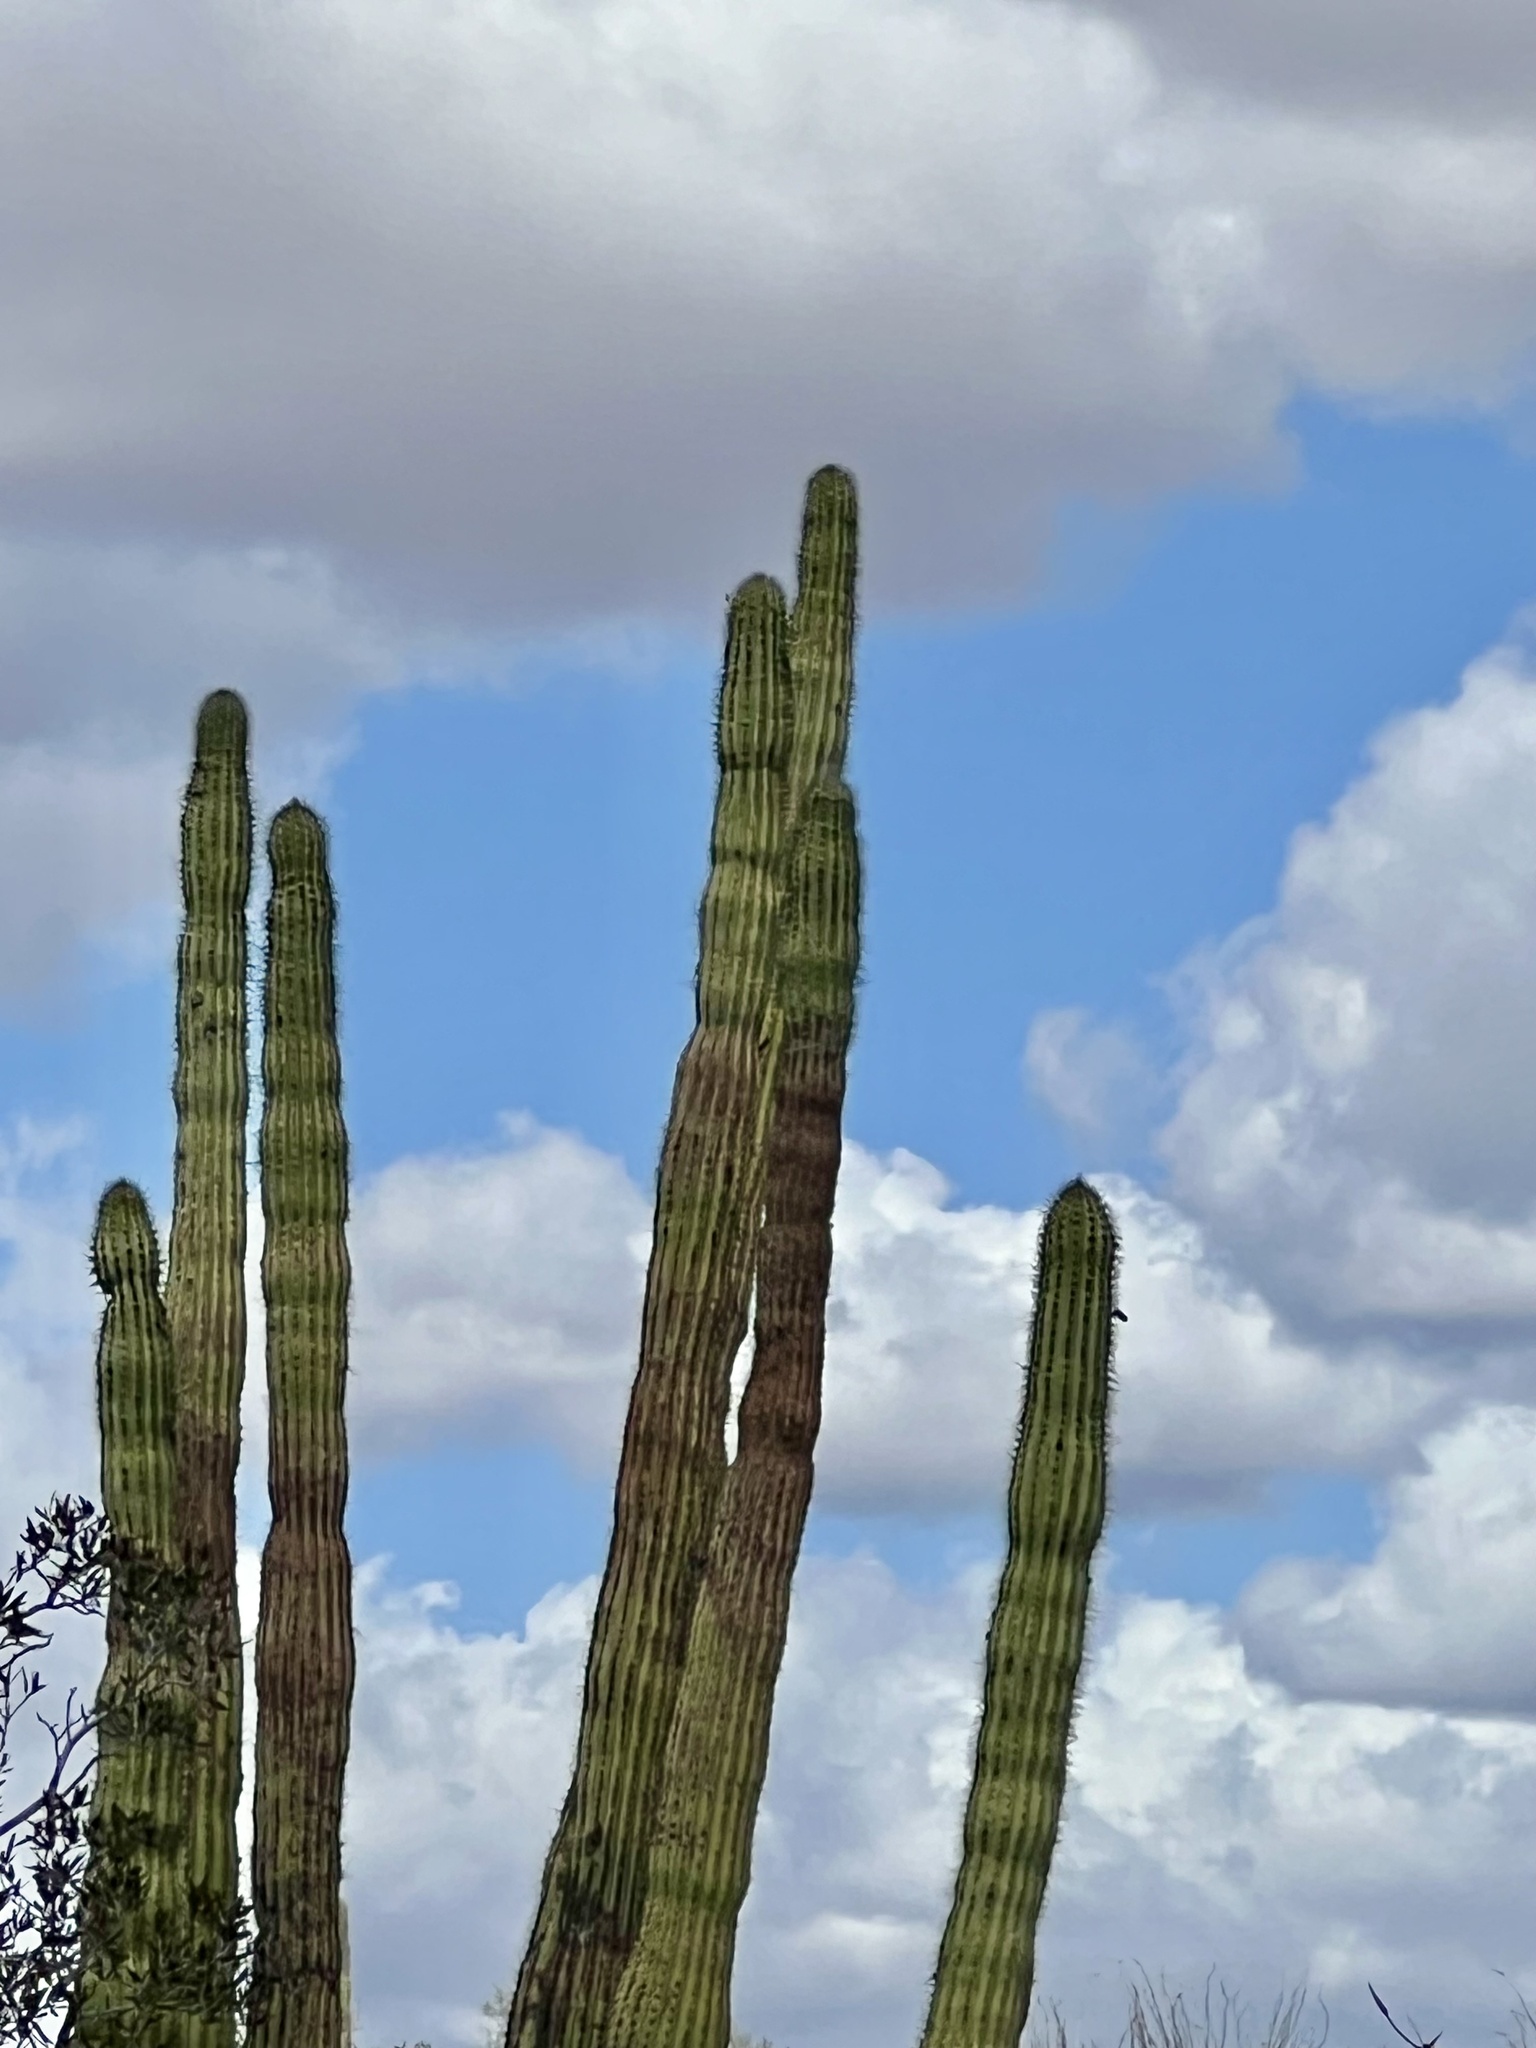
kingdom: Plantae
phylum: Tracheophyta
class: Magnoliopsida
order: Caryophyllales
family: Cactaceae
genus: Stenocereus
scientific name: Stenocereus thurberi
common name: Organ pipe cactus
